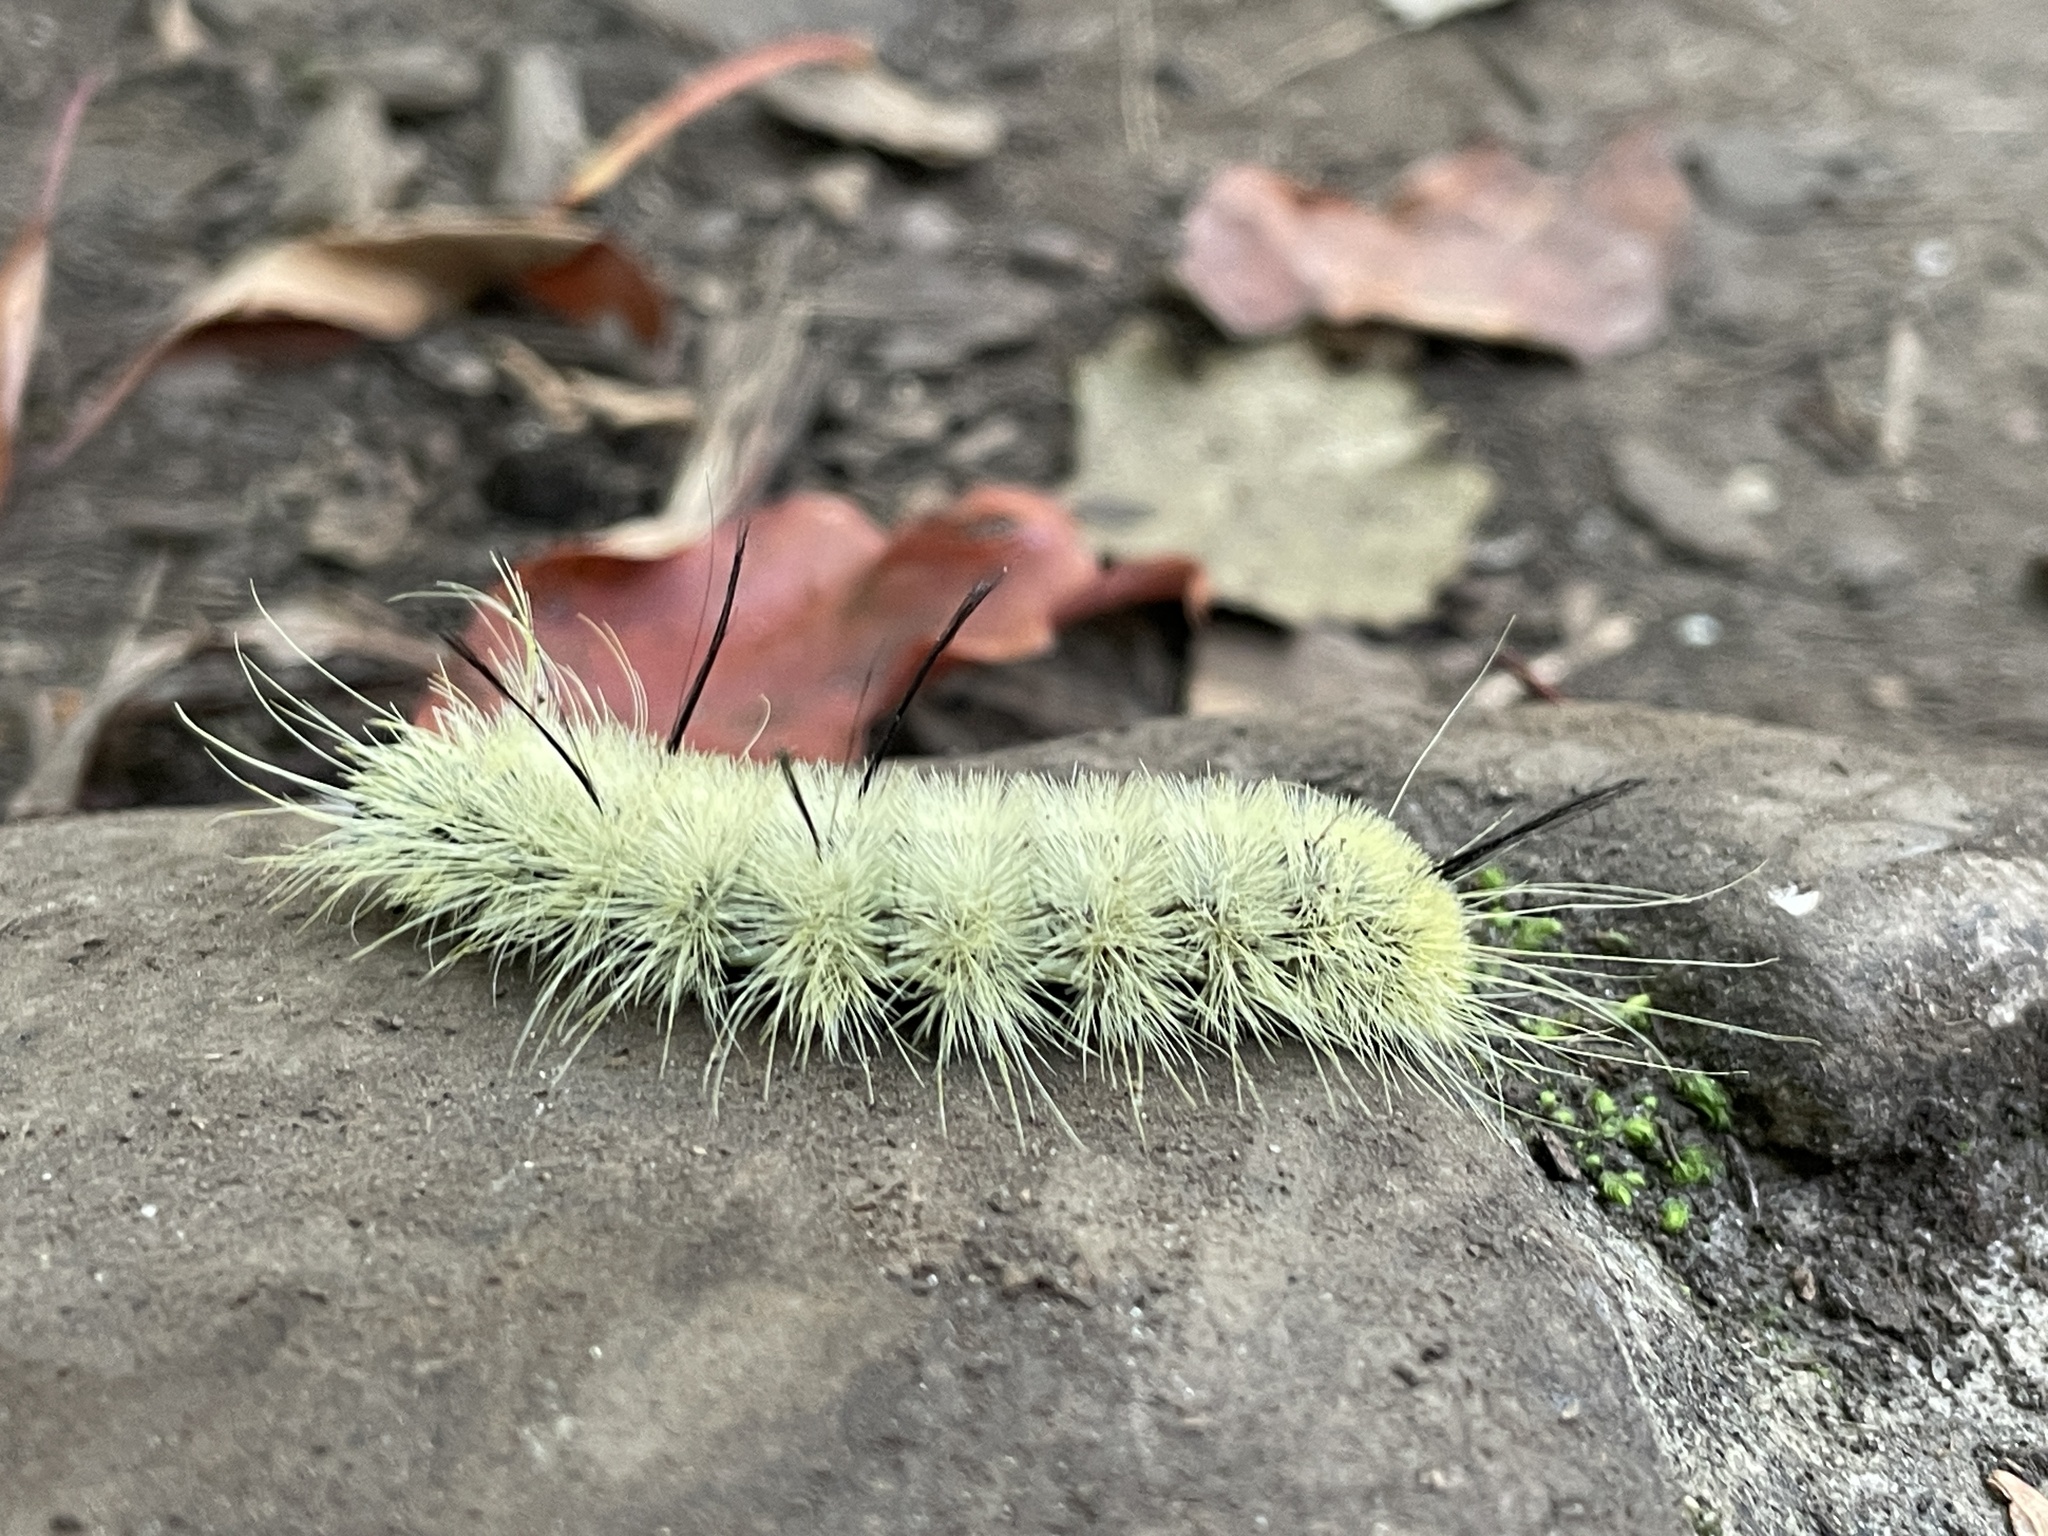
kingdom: Animalia
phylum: Arthropoda
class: Insecta
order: Lepidoptera
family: Noctuidae
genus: Acronicta
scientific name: Acronicta americana
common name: American dagger
